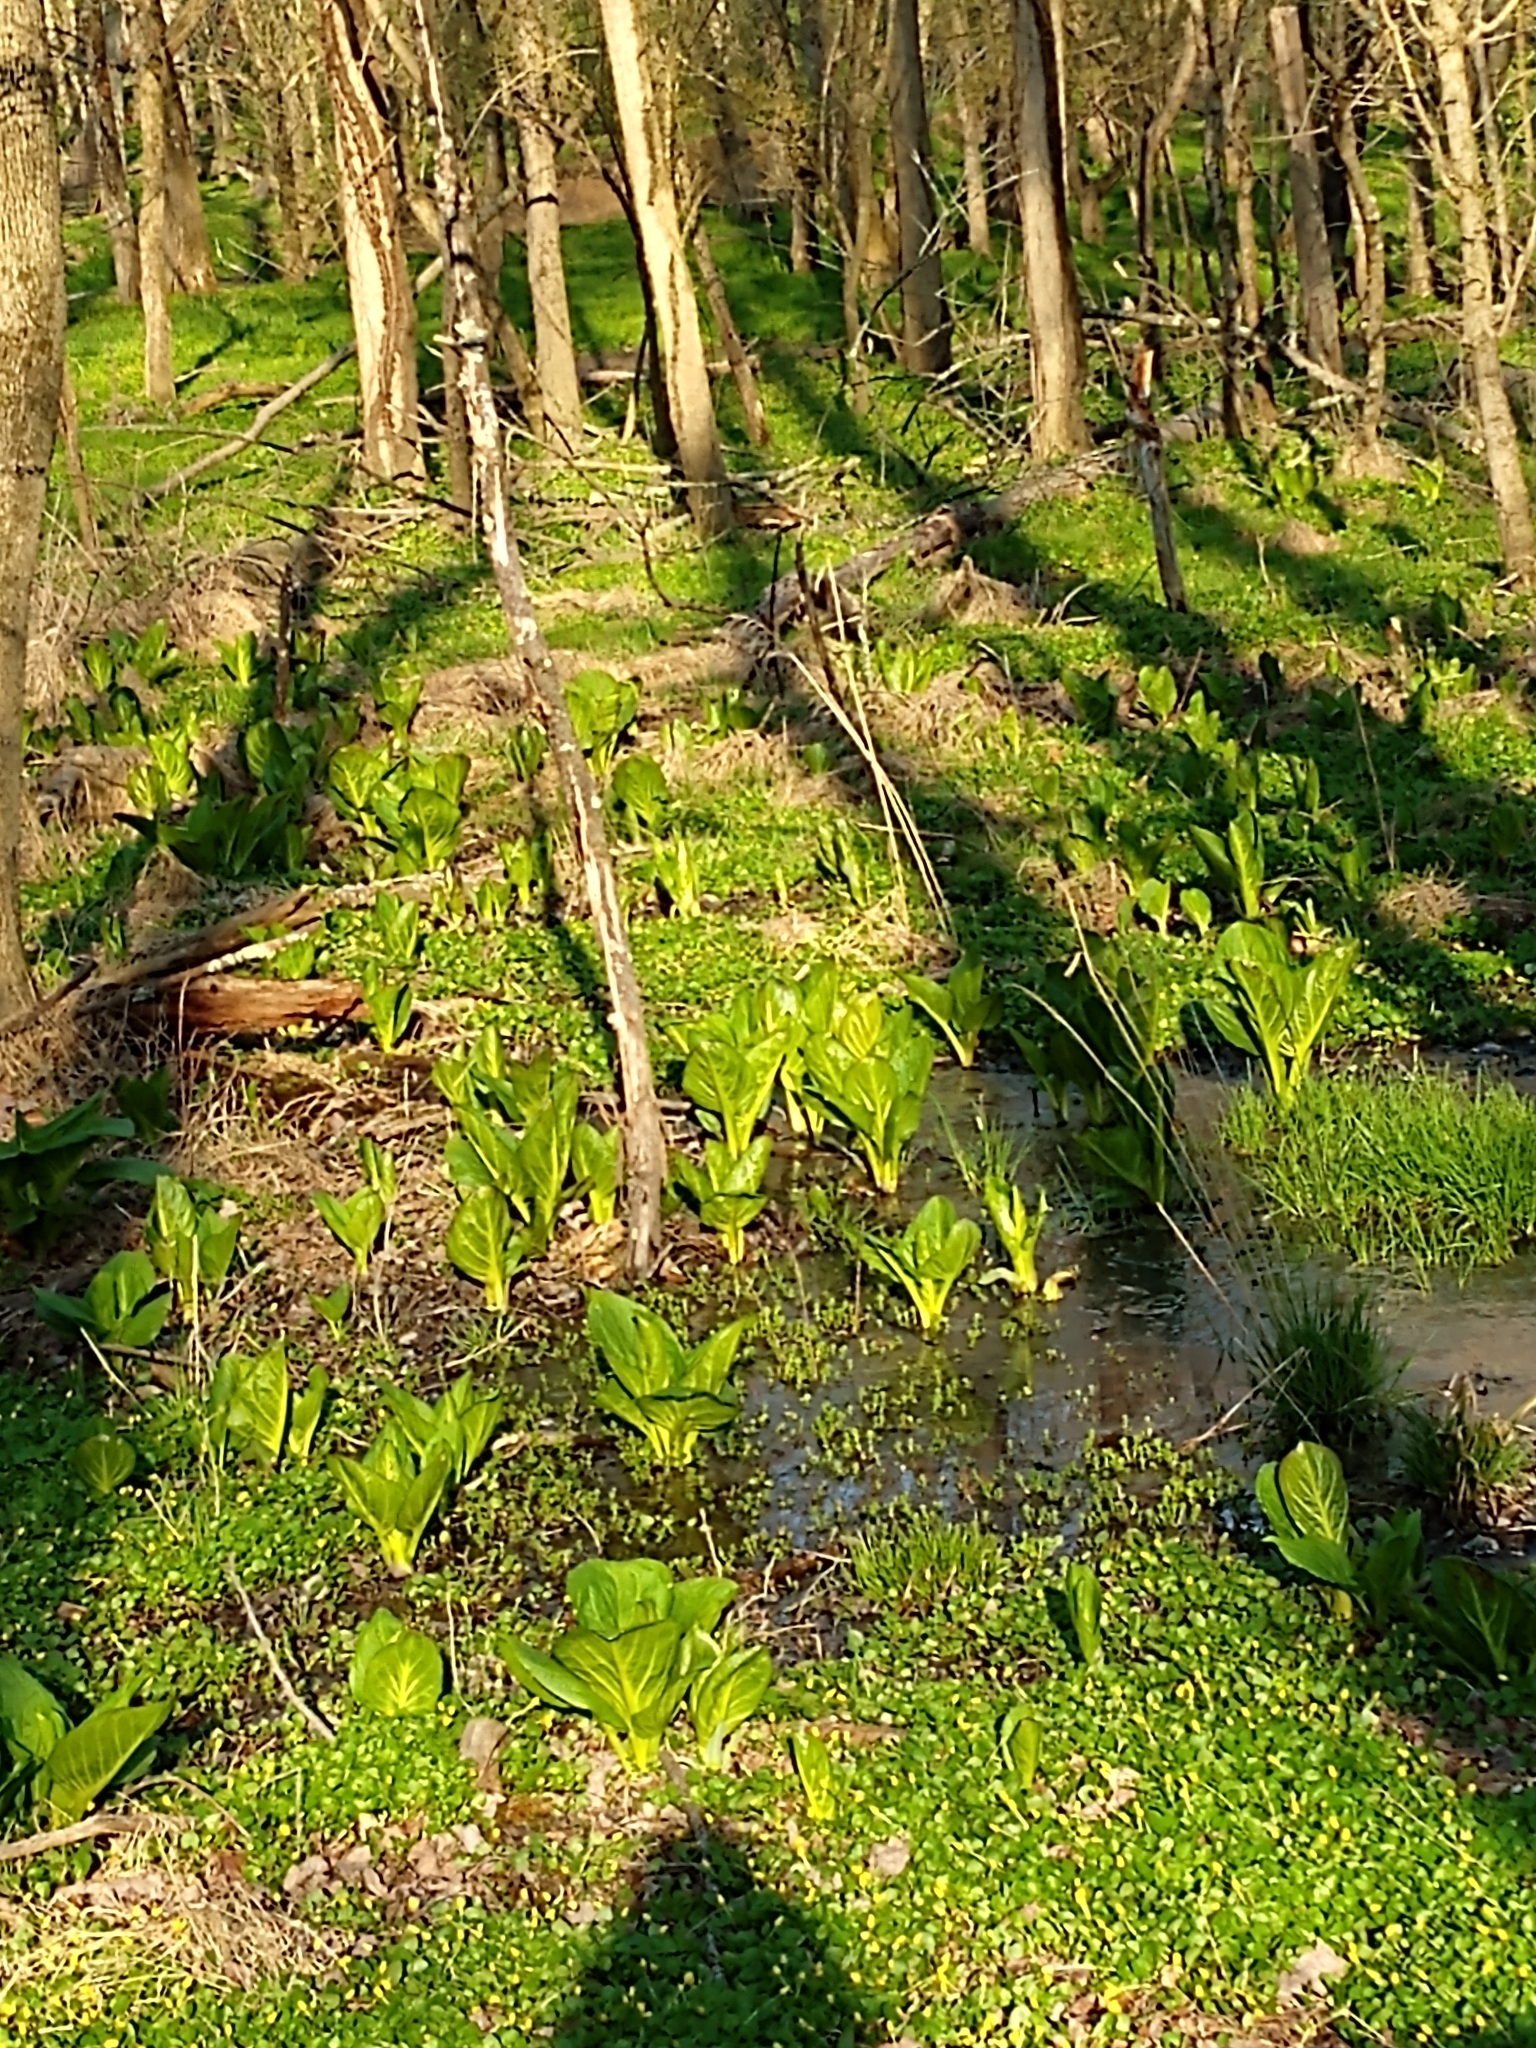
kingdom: Plantae
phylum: Tracheophyta
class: Liliopsida
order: Alismatales
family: Araceae
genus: Symplocarpus
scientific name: Symplocarpus foetidus
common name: Eastern skunk cabbage
